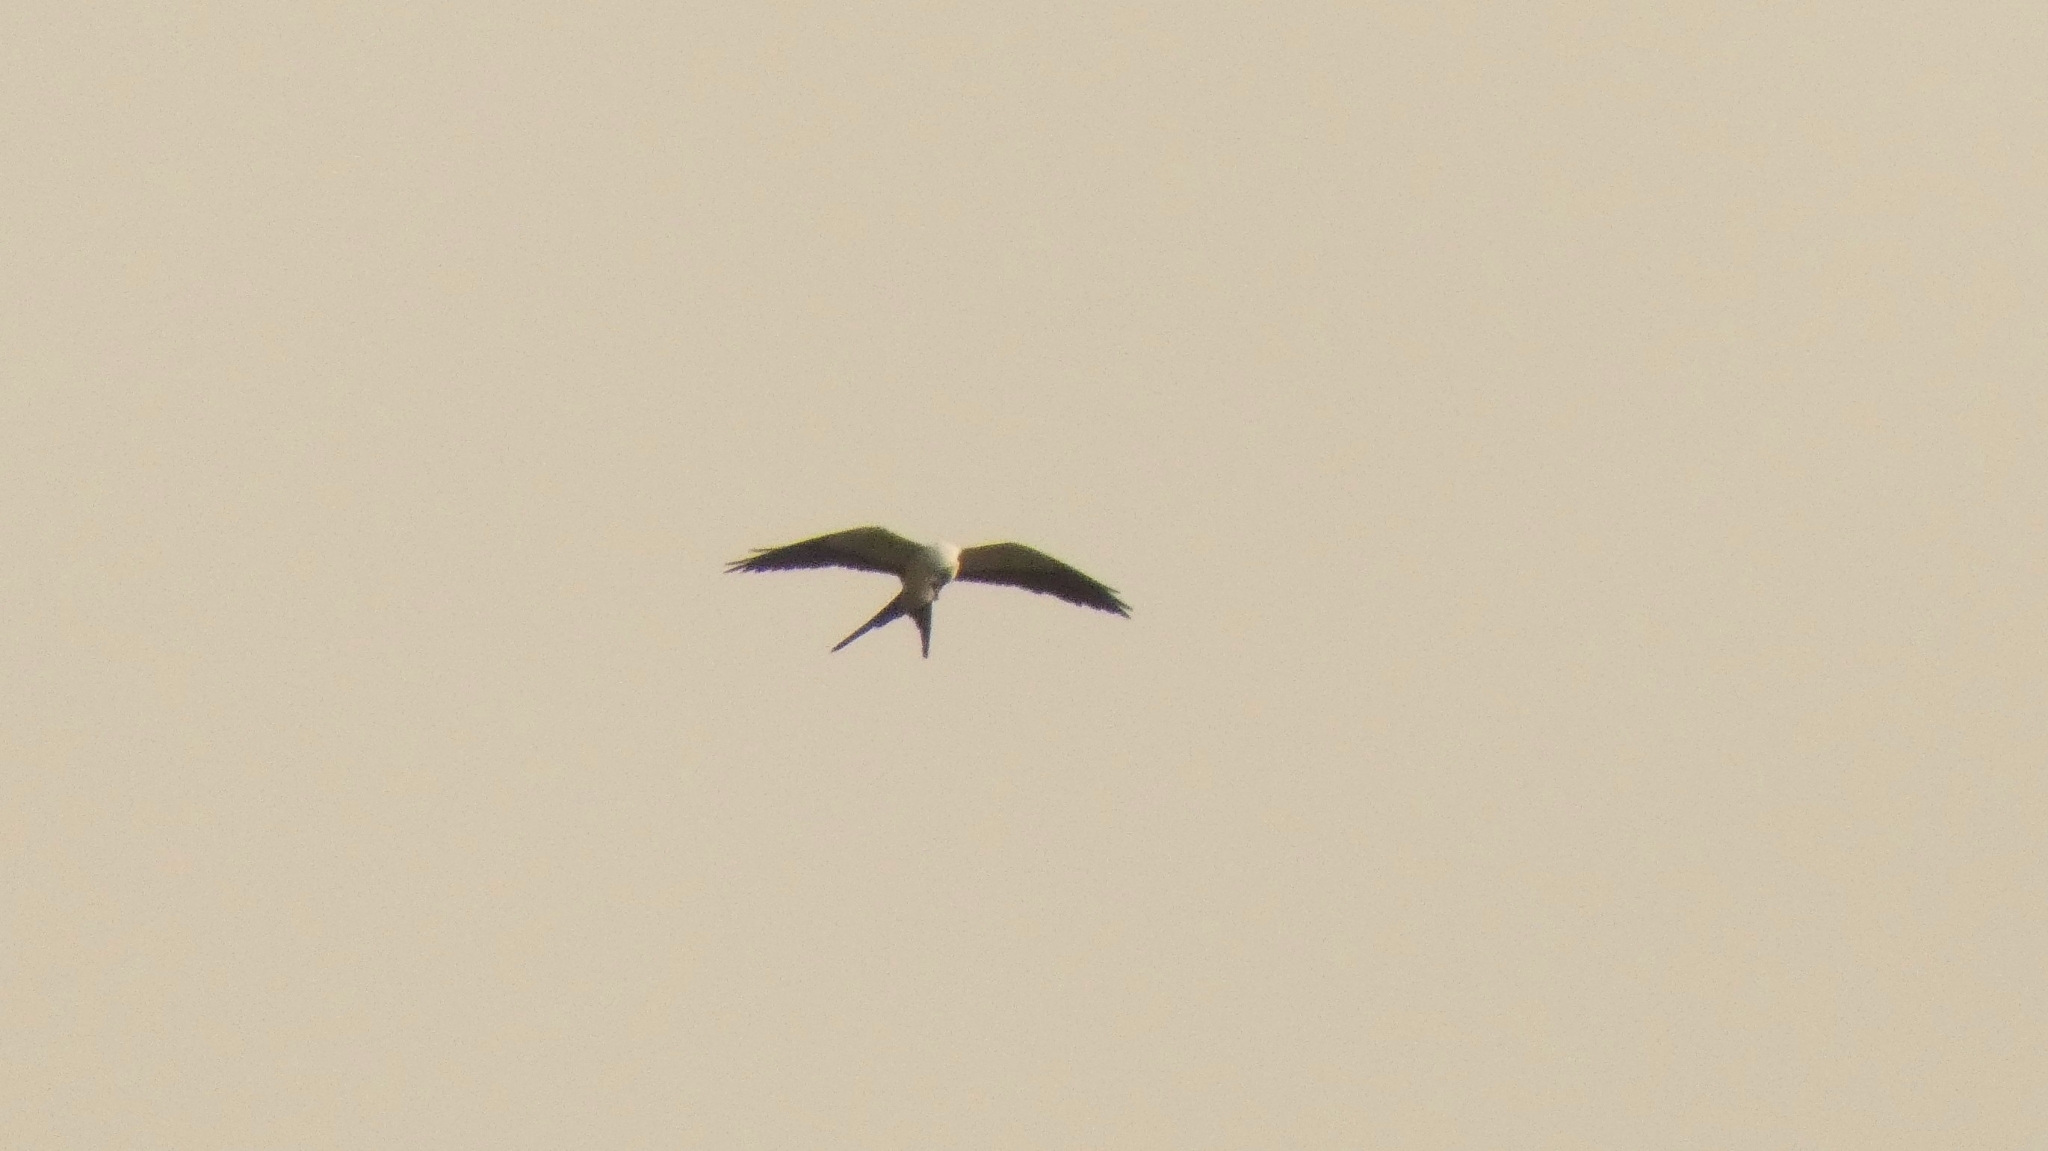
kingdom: Animalia
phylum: Chordata
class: Aves
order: Accipitriformes
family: Accipitridae
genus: Elanoides
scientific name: Elanoides forficatus
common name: Swallow-tailed kite
